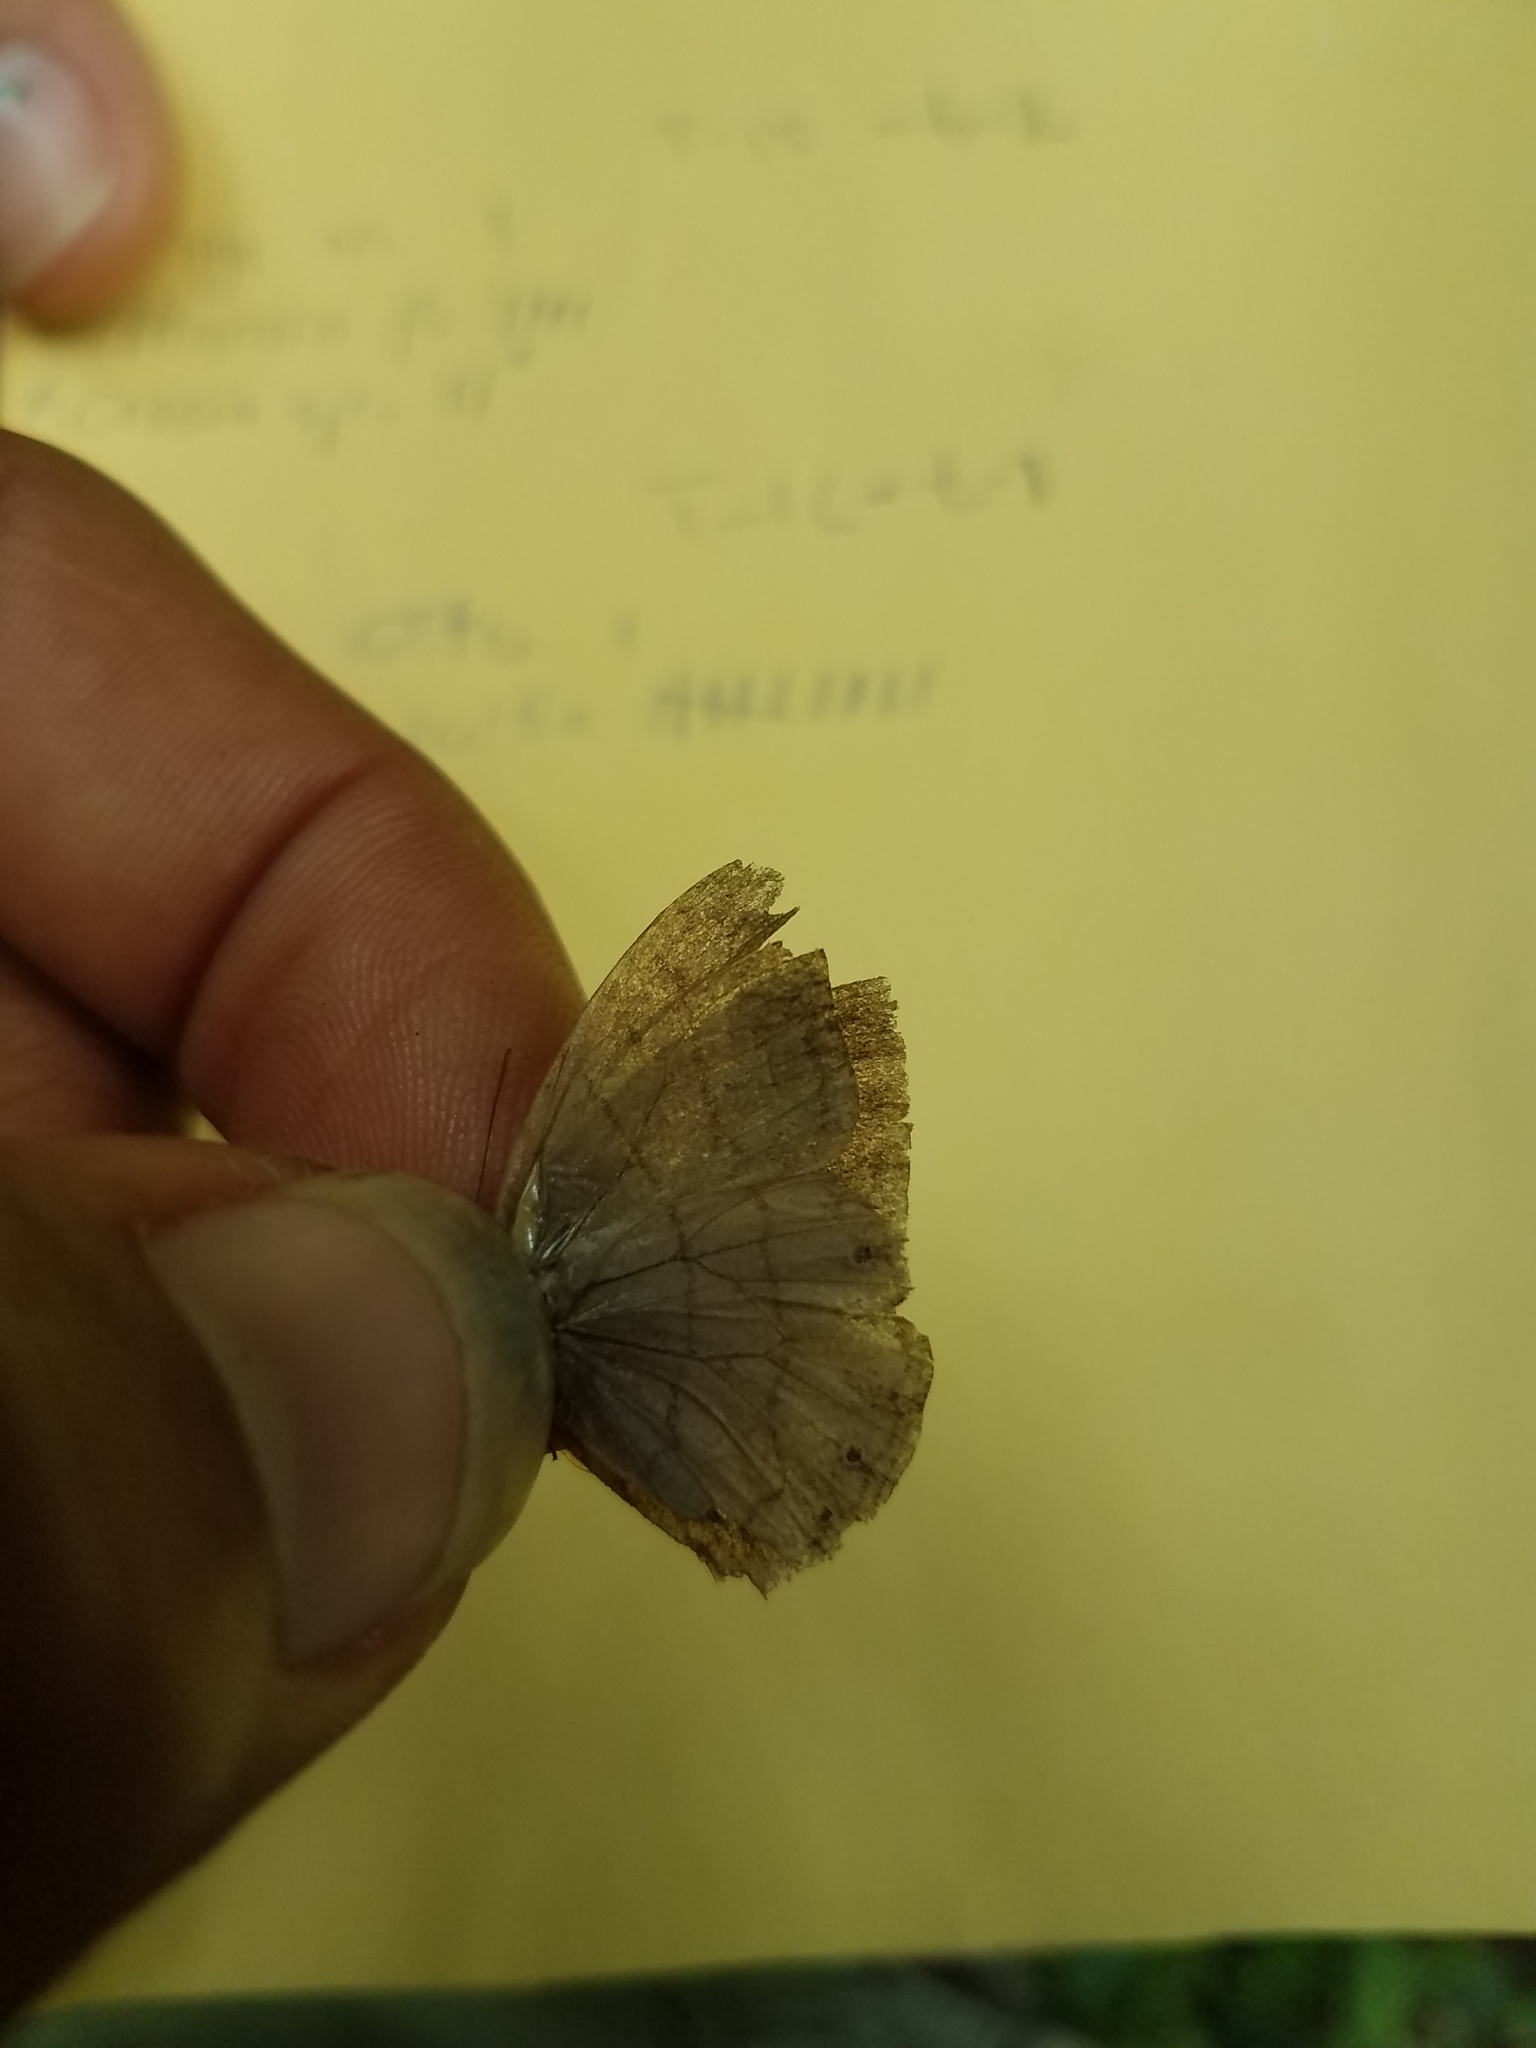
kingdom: Animalia
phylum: Arthropoda
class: Insecta
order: Lepidoptera
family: Nymphalidae
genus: Hermeuptychia
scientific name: Hermeuptychia hermes
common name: Hermes satyr
